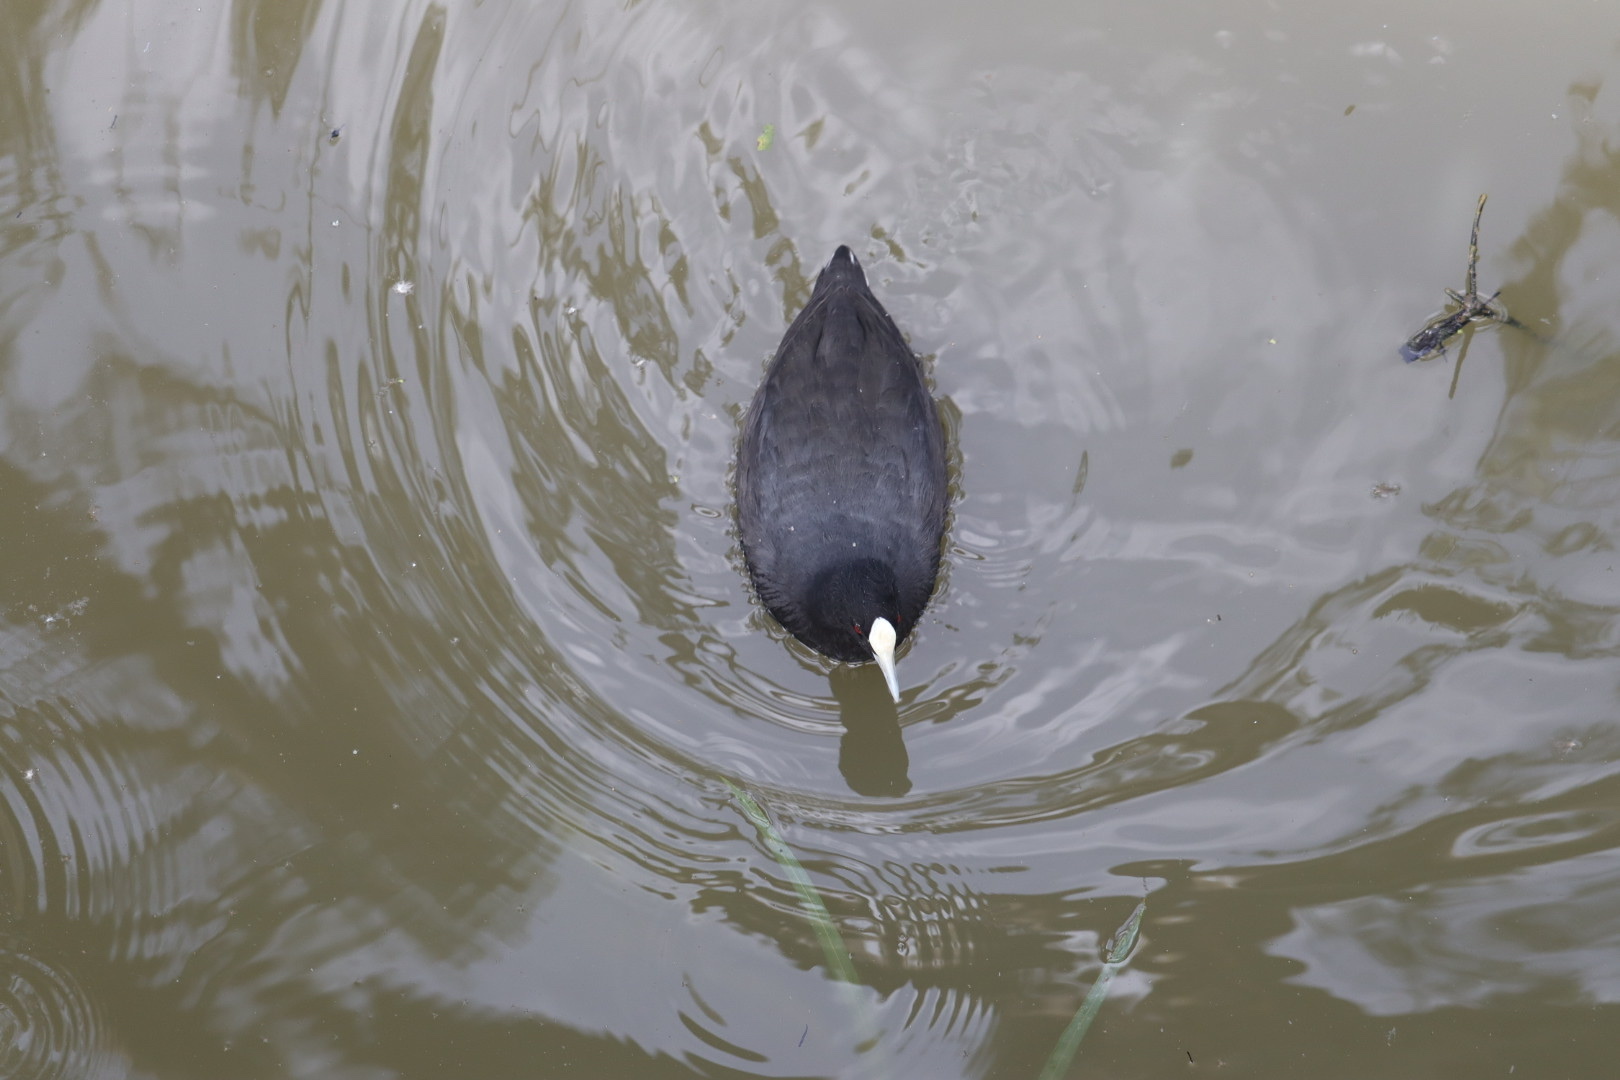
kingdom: Animalia
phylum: Chordata
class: Aves
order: Gruiformes
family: Rallidae
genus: Fulica
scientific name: Fulica atra
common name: Eurasian coot
